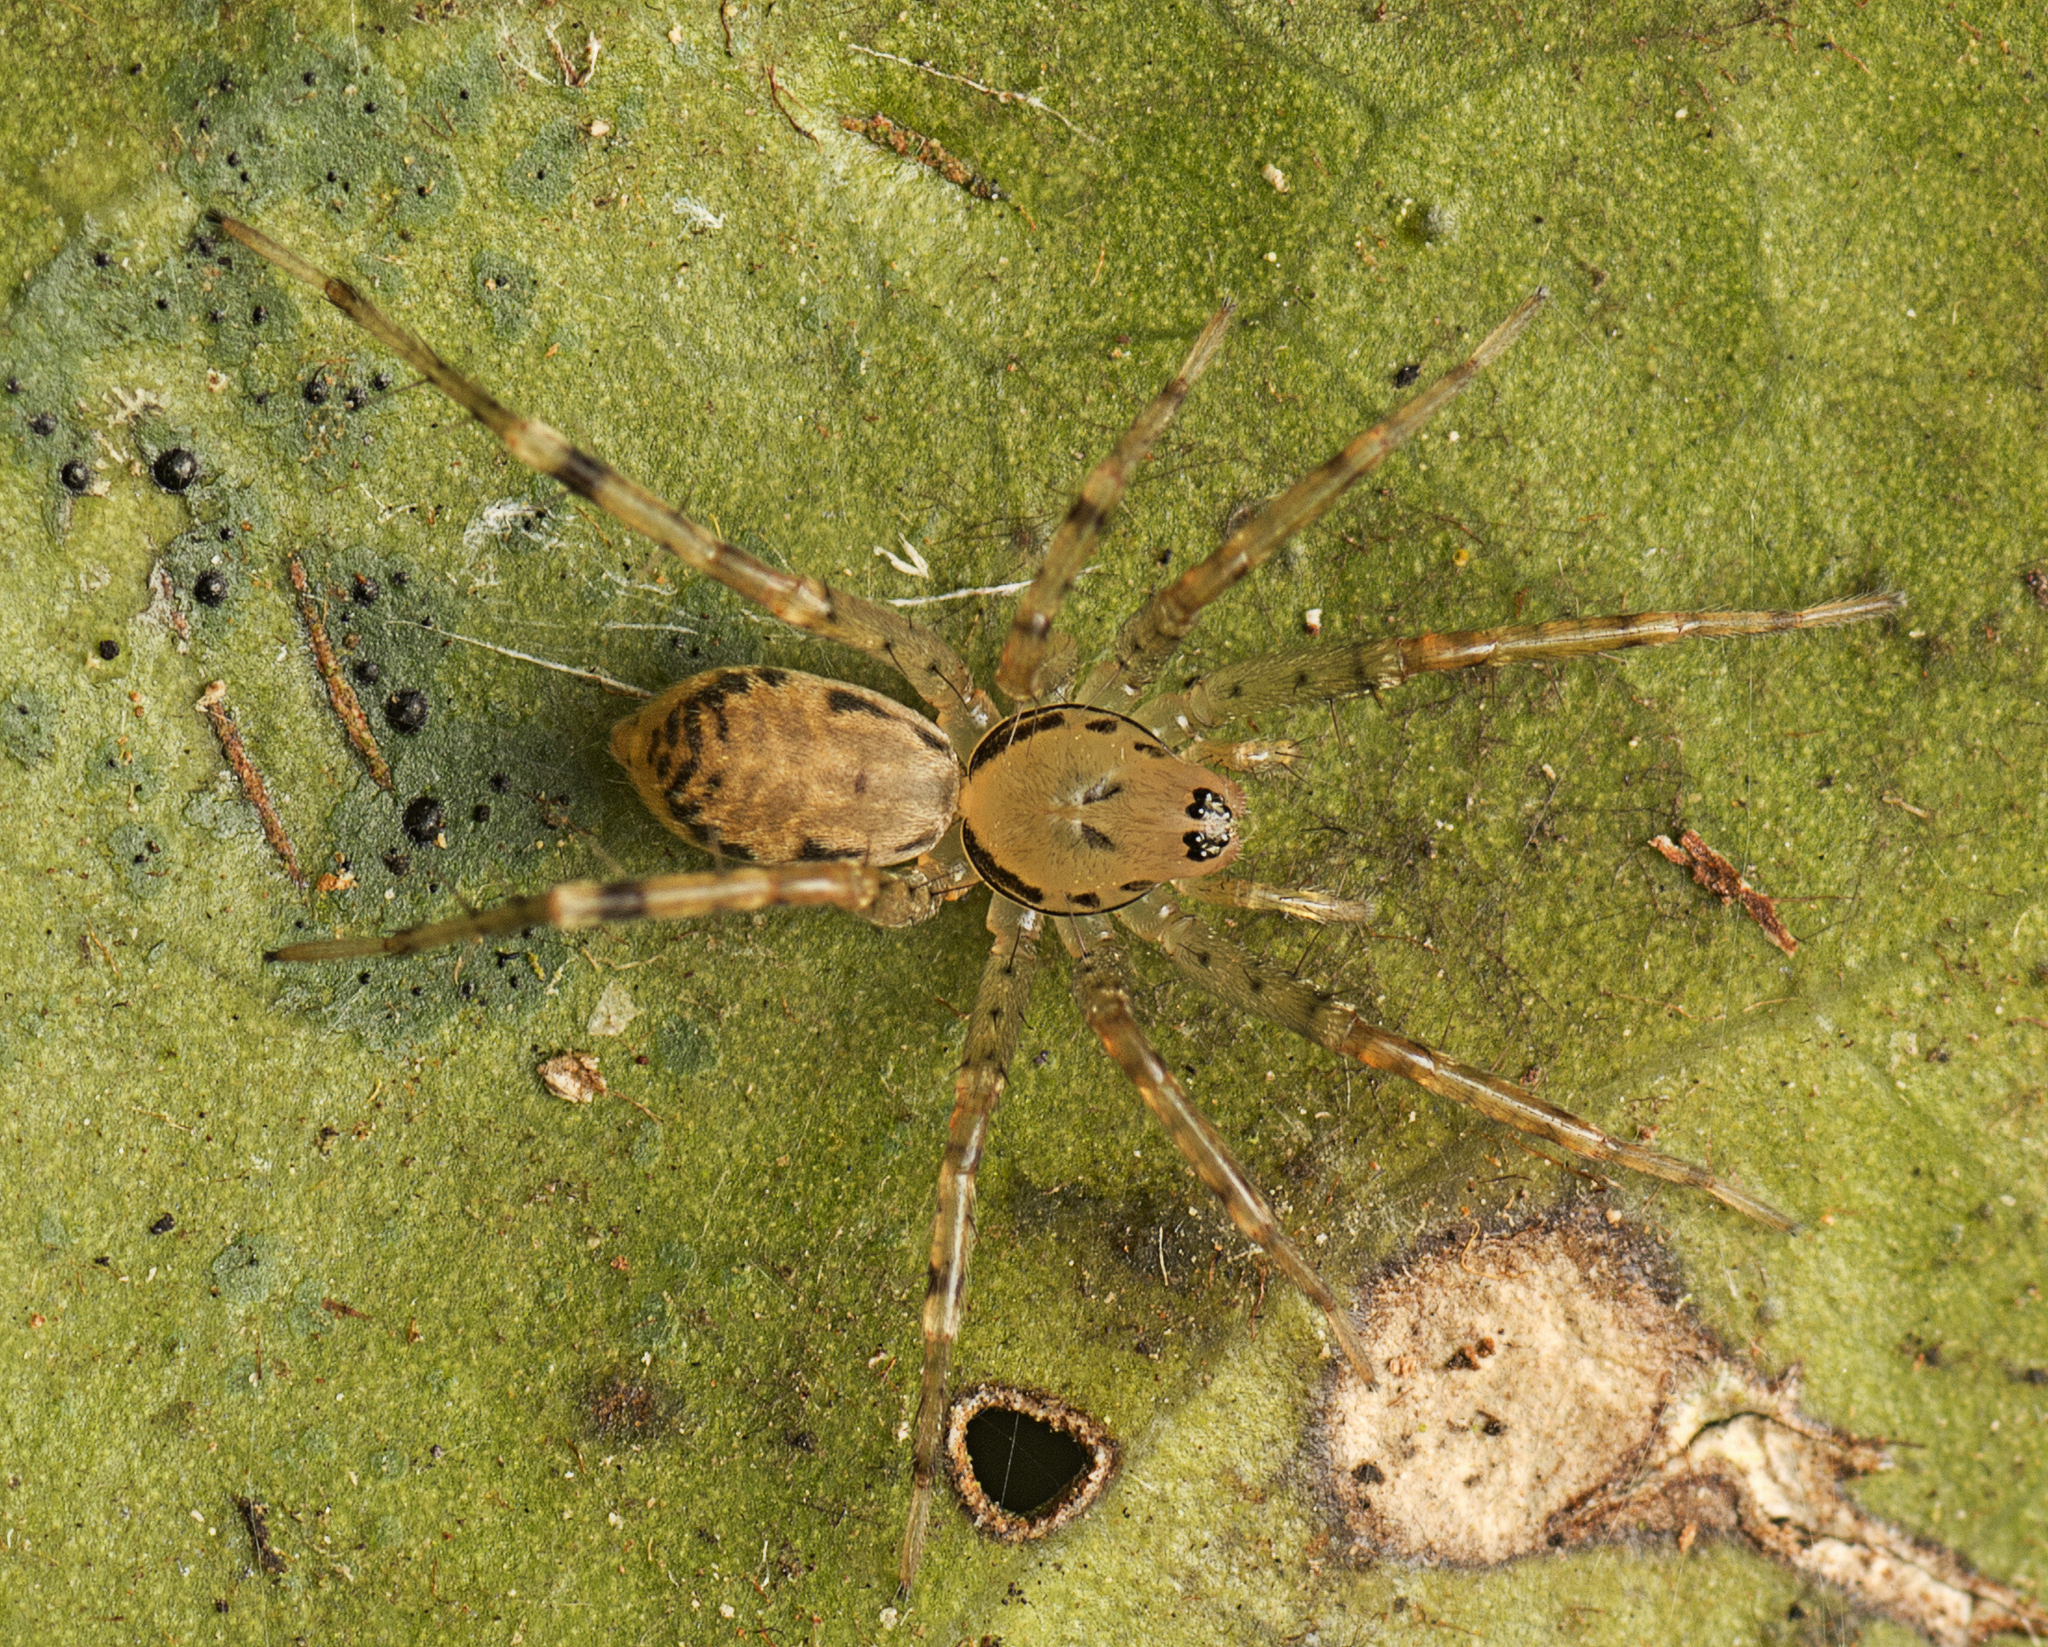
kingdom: Animalia
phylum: Arthropoda
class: Arachnida
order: Araneae
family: Corinnidae
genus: Copa
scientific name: Copa kabana
